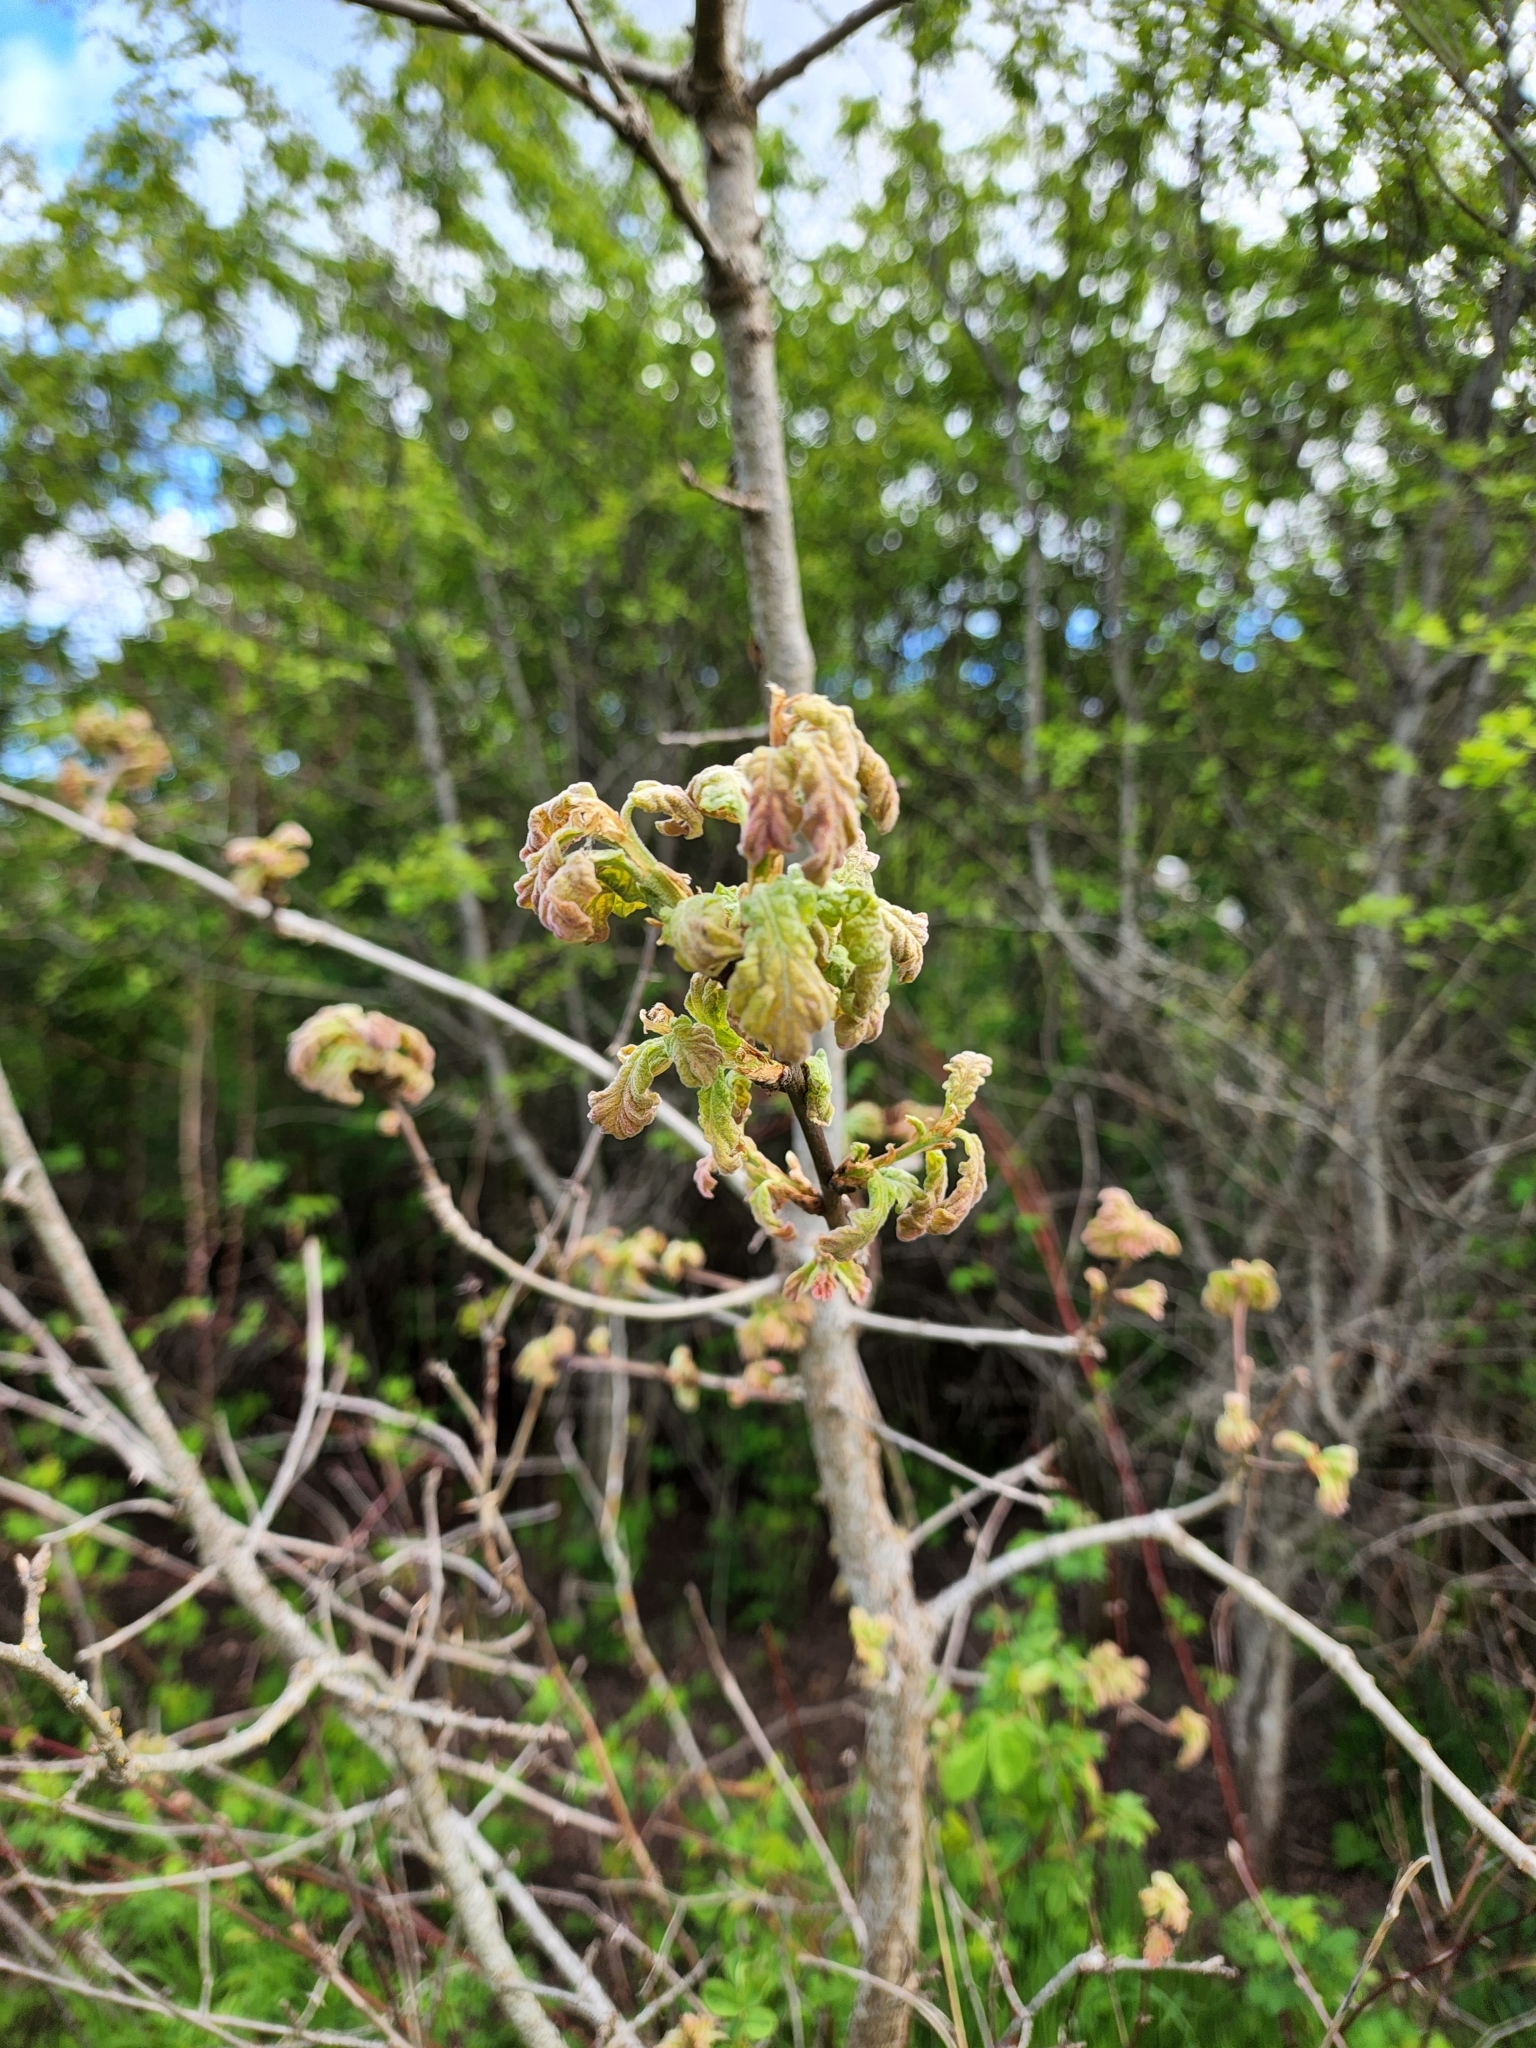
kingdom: Plantae
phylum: Tracheophyta
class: Magnoliopsida
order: Fagales
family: Fagaceae
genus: Quercus
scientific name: Quercus garryana
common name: Garry oak
